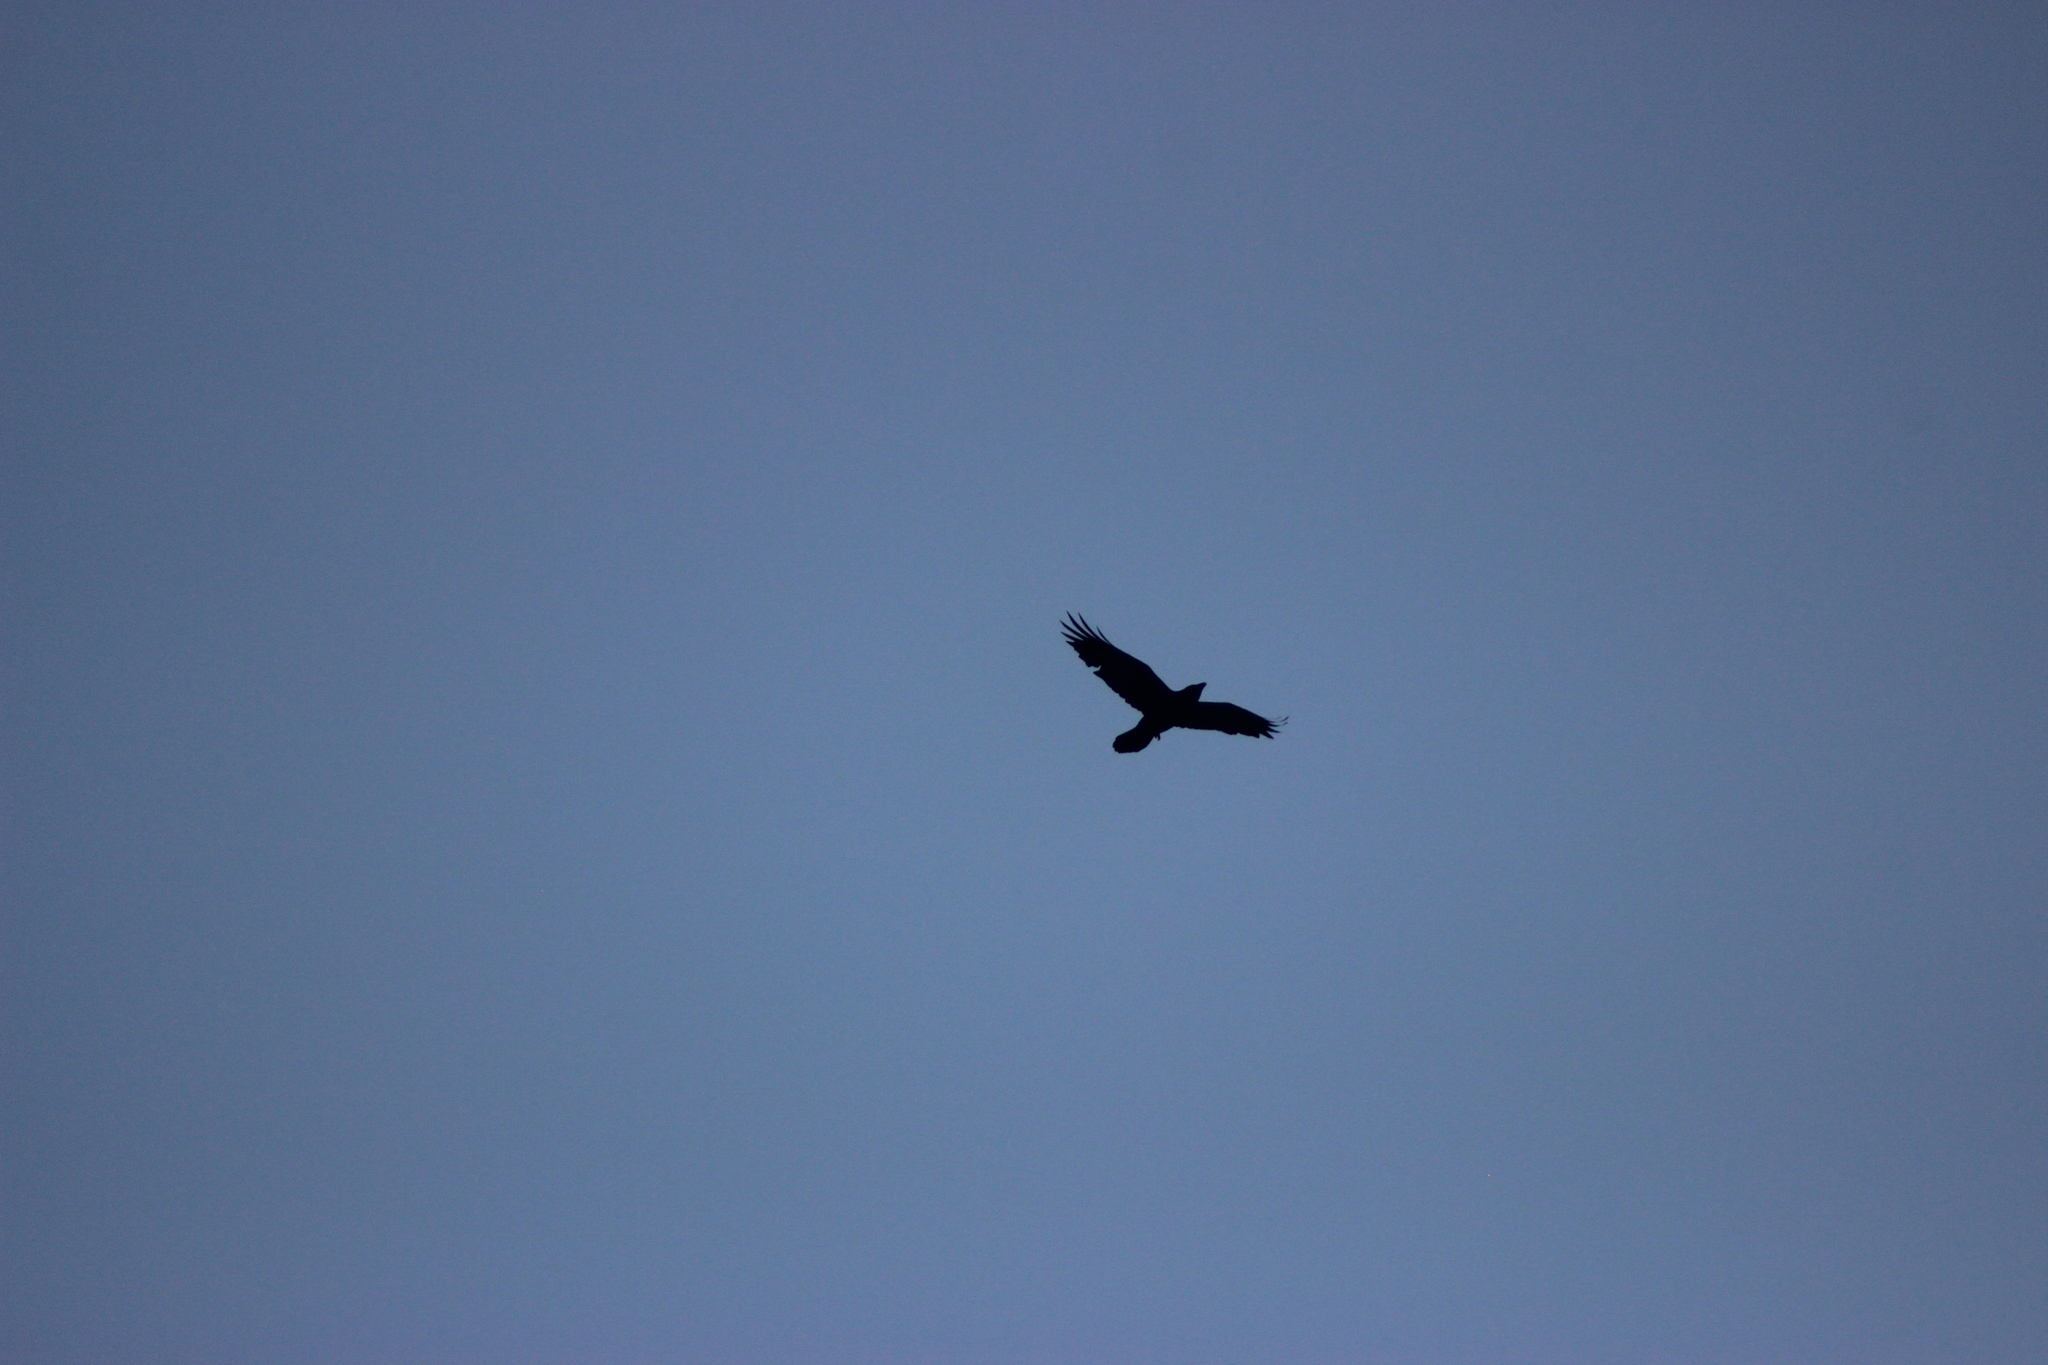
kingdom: Animalia
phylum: Chordata
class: Aves
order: Passeriformes
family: Corvidae
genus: Corvus
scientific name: Corvus corax
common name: Common raven
